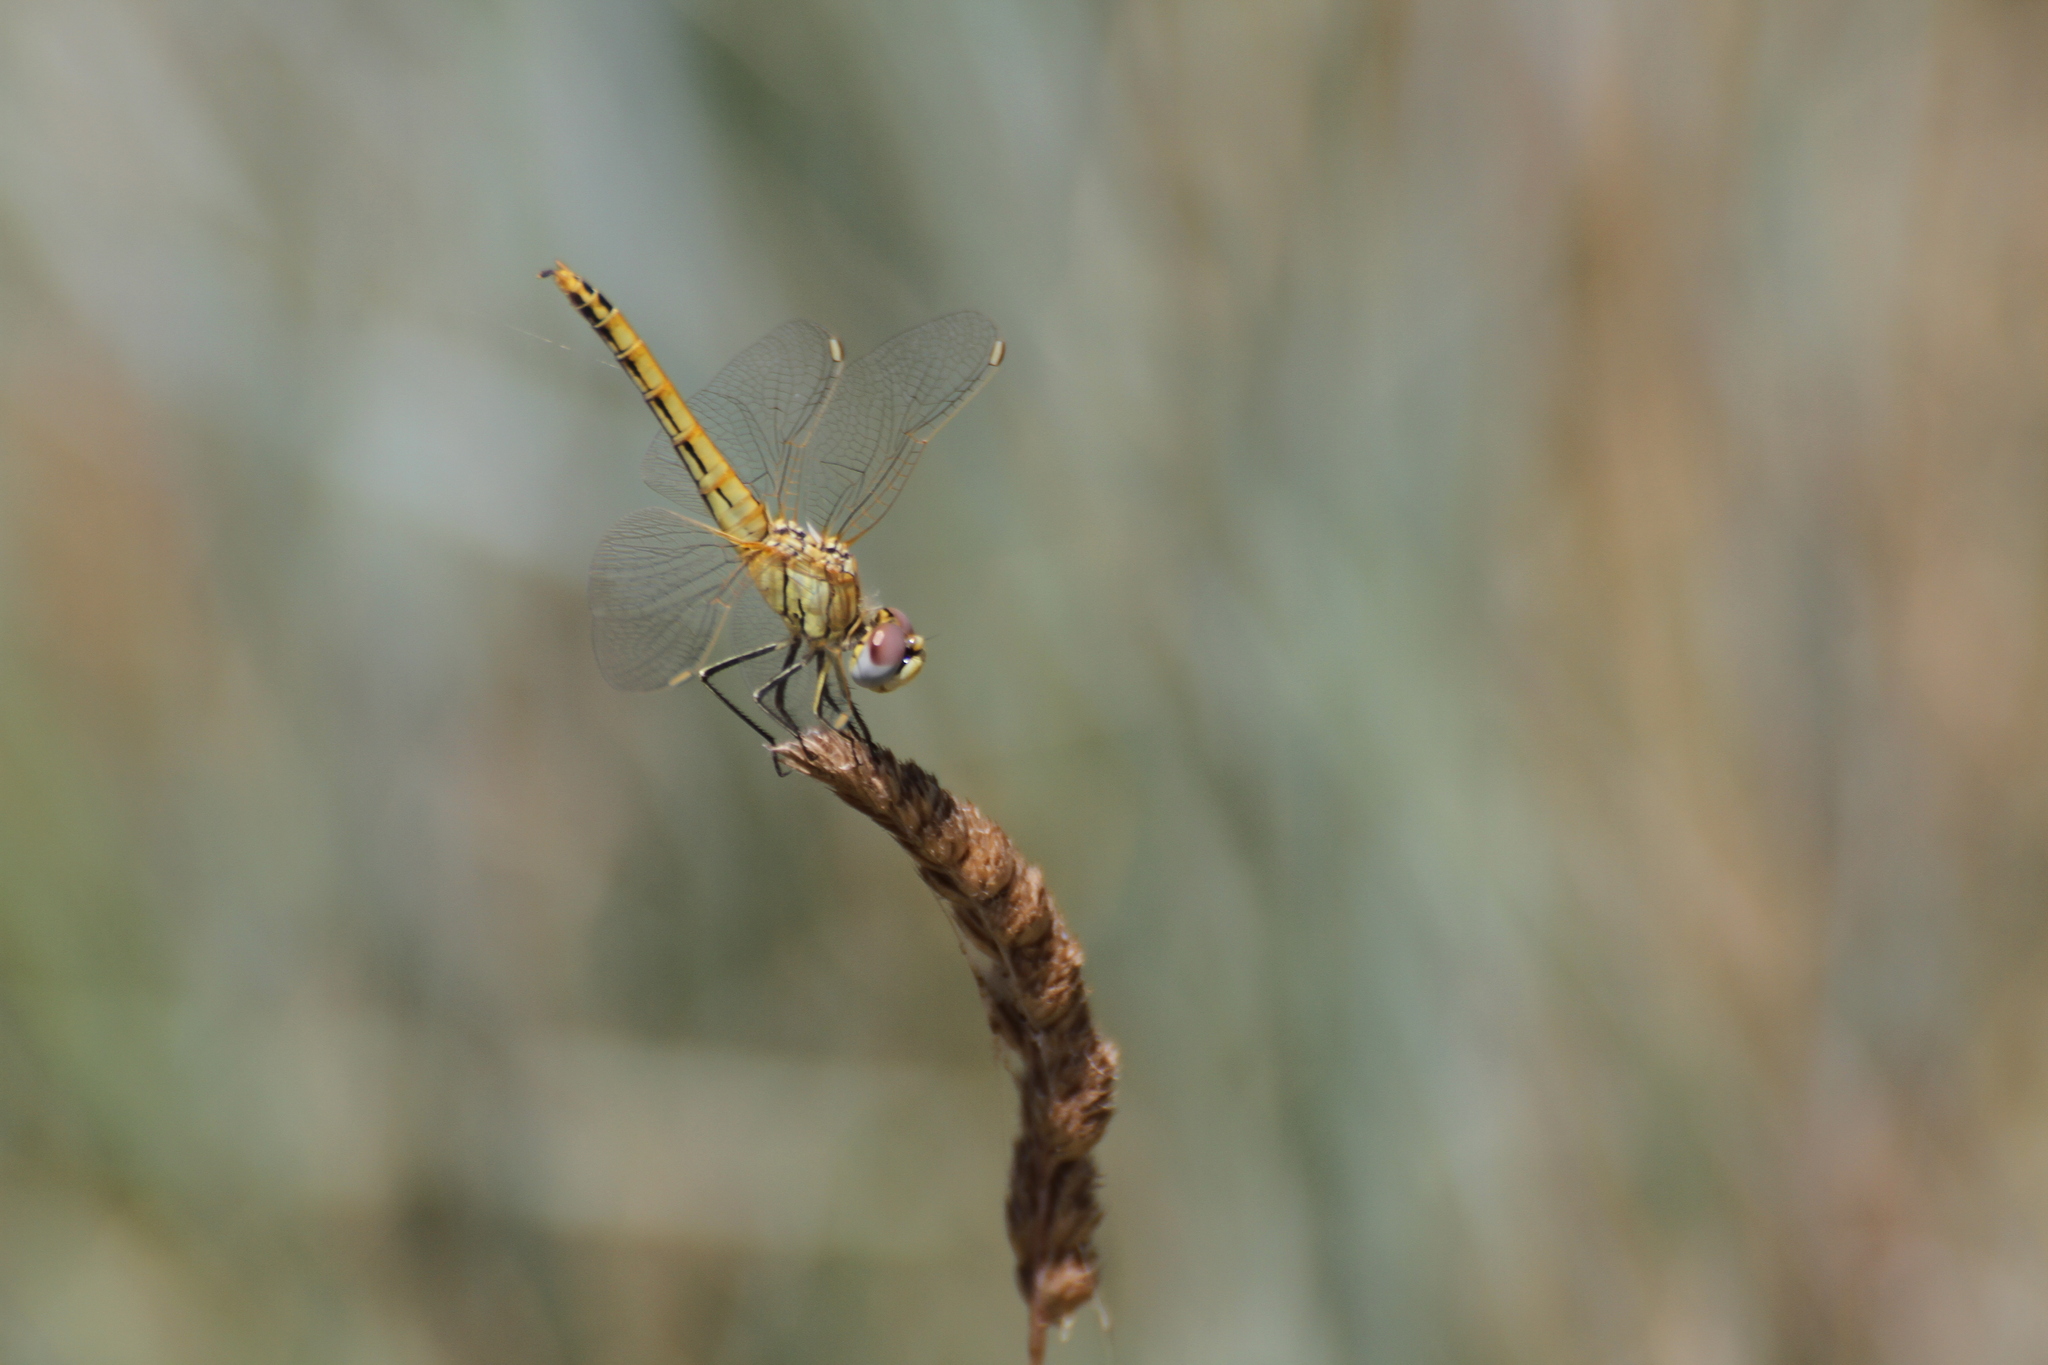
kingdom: Animalia
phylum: Arthropoda
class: Insecta
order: Odonata
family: Libellulidae
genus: Sympetrum
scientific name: Sympetrum fonscolombii
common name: Red-veined darter
